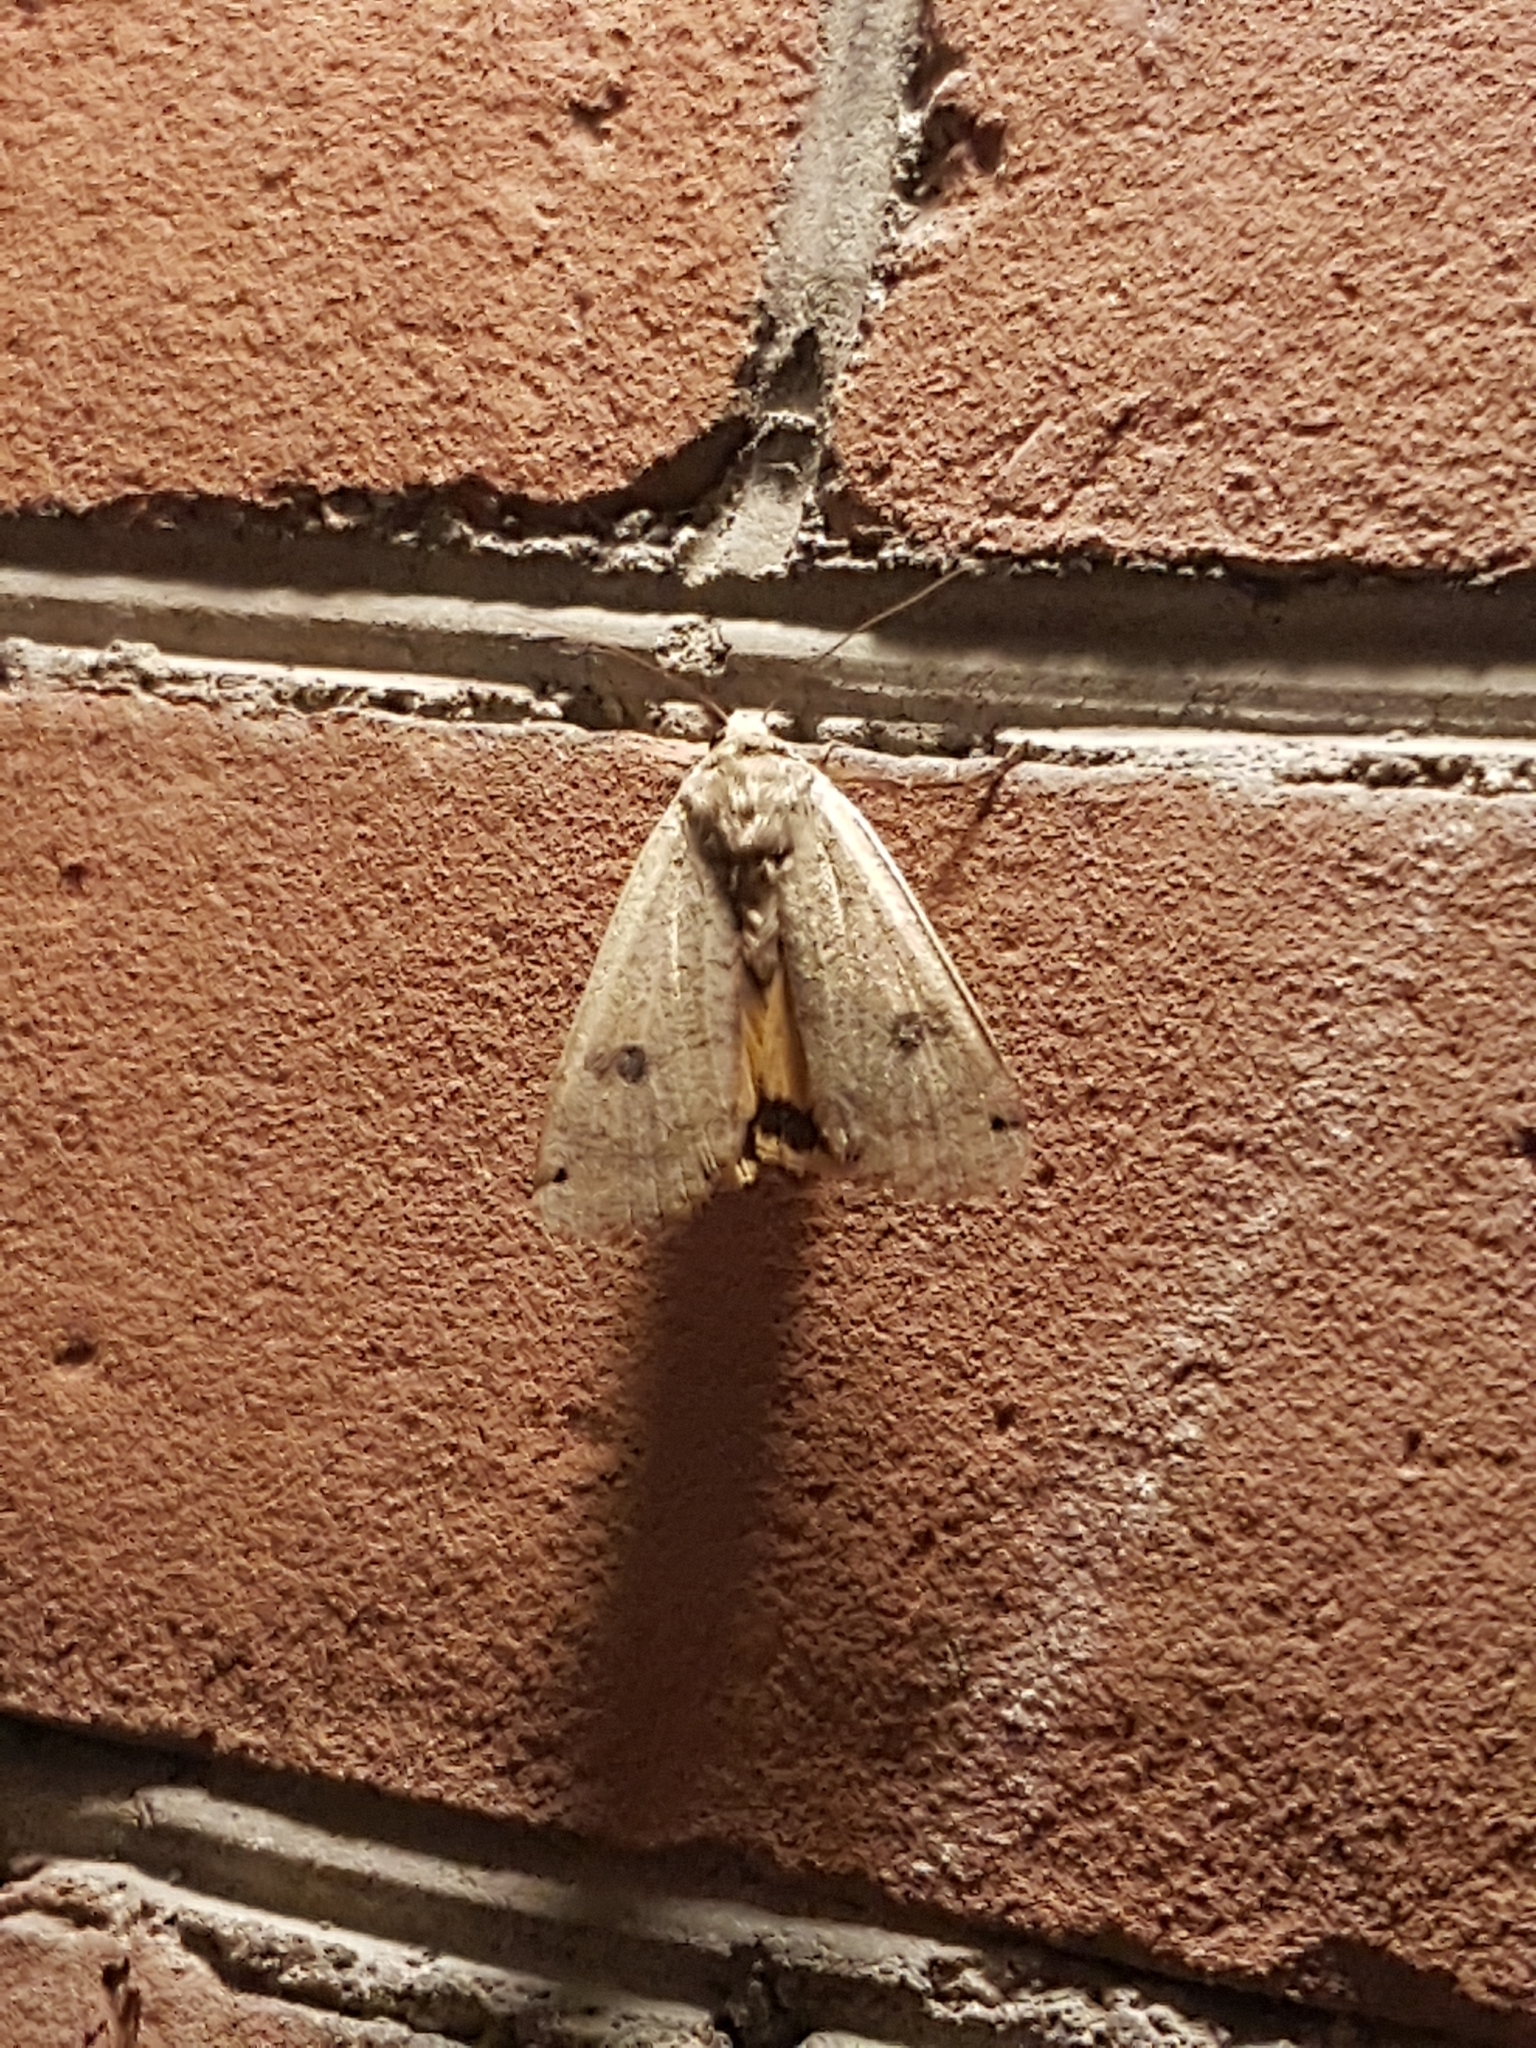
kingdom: Animalia
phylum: Arthropoda
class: Insecta
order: Lepidoptera
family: Noctuidae
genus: Noctua
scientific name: Noctua pronuba
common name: Large yellow underwing
